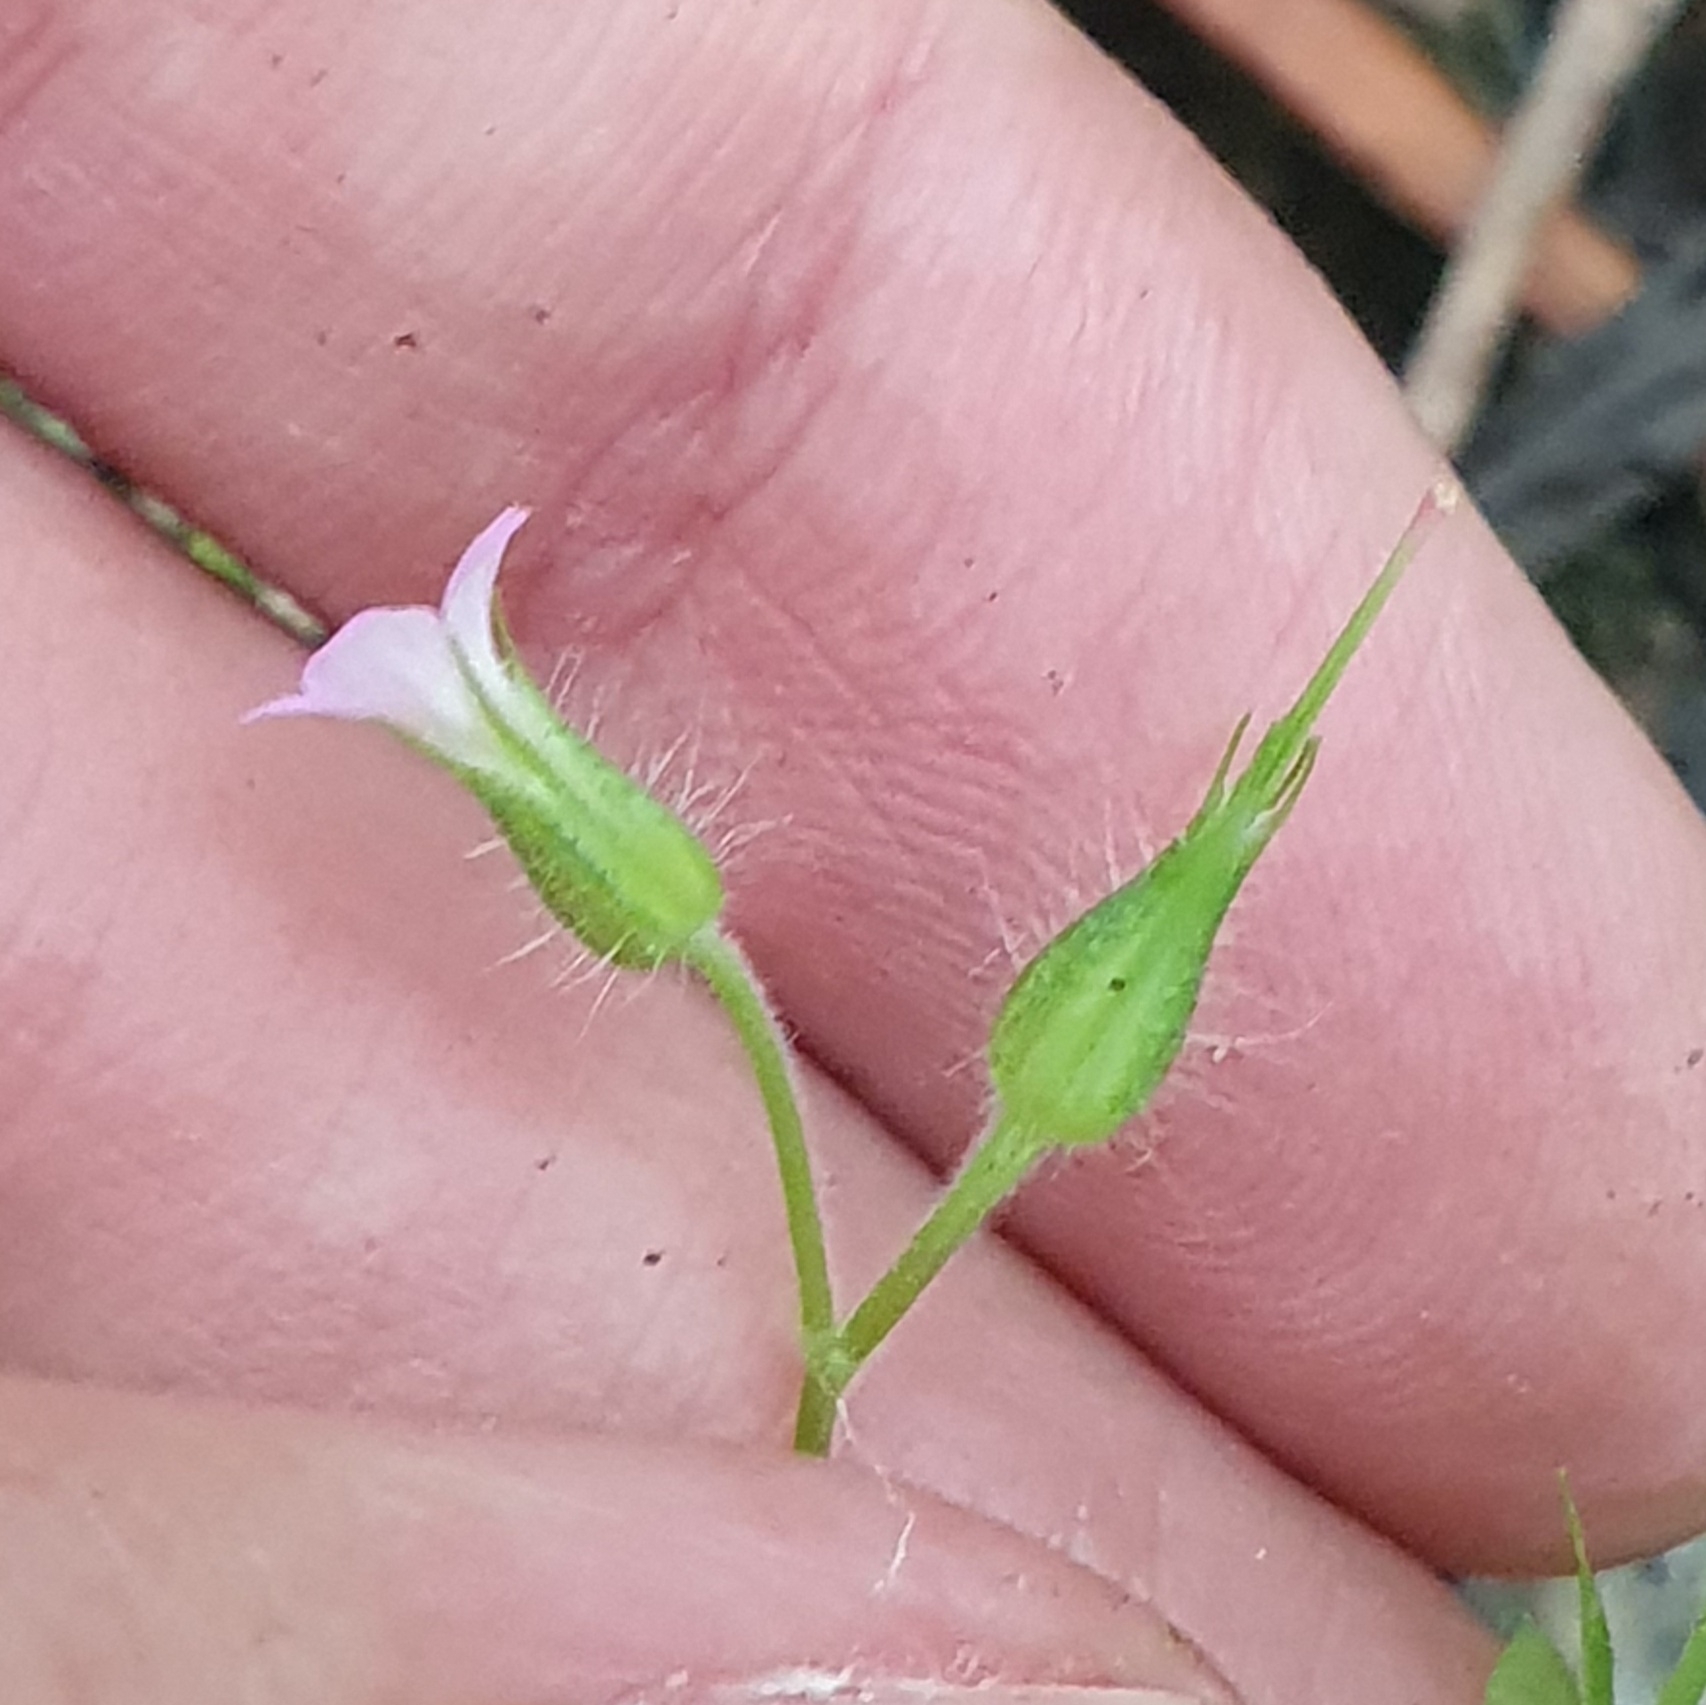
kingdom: Plantae
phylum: Tracheophyta
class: Magnoliopsida
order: Geraniales
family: Geraniaceae
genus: Geranium
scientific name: Geranium purpureum
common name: Little-robin
